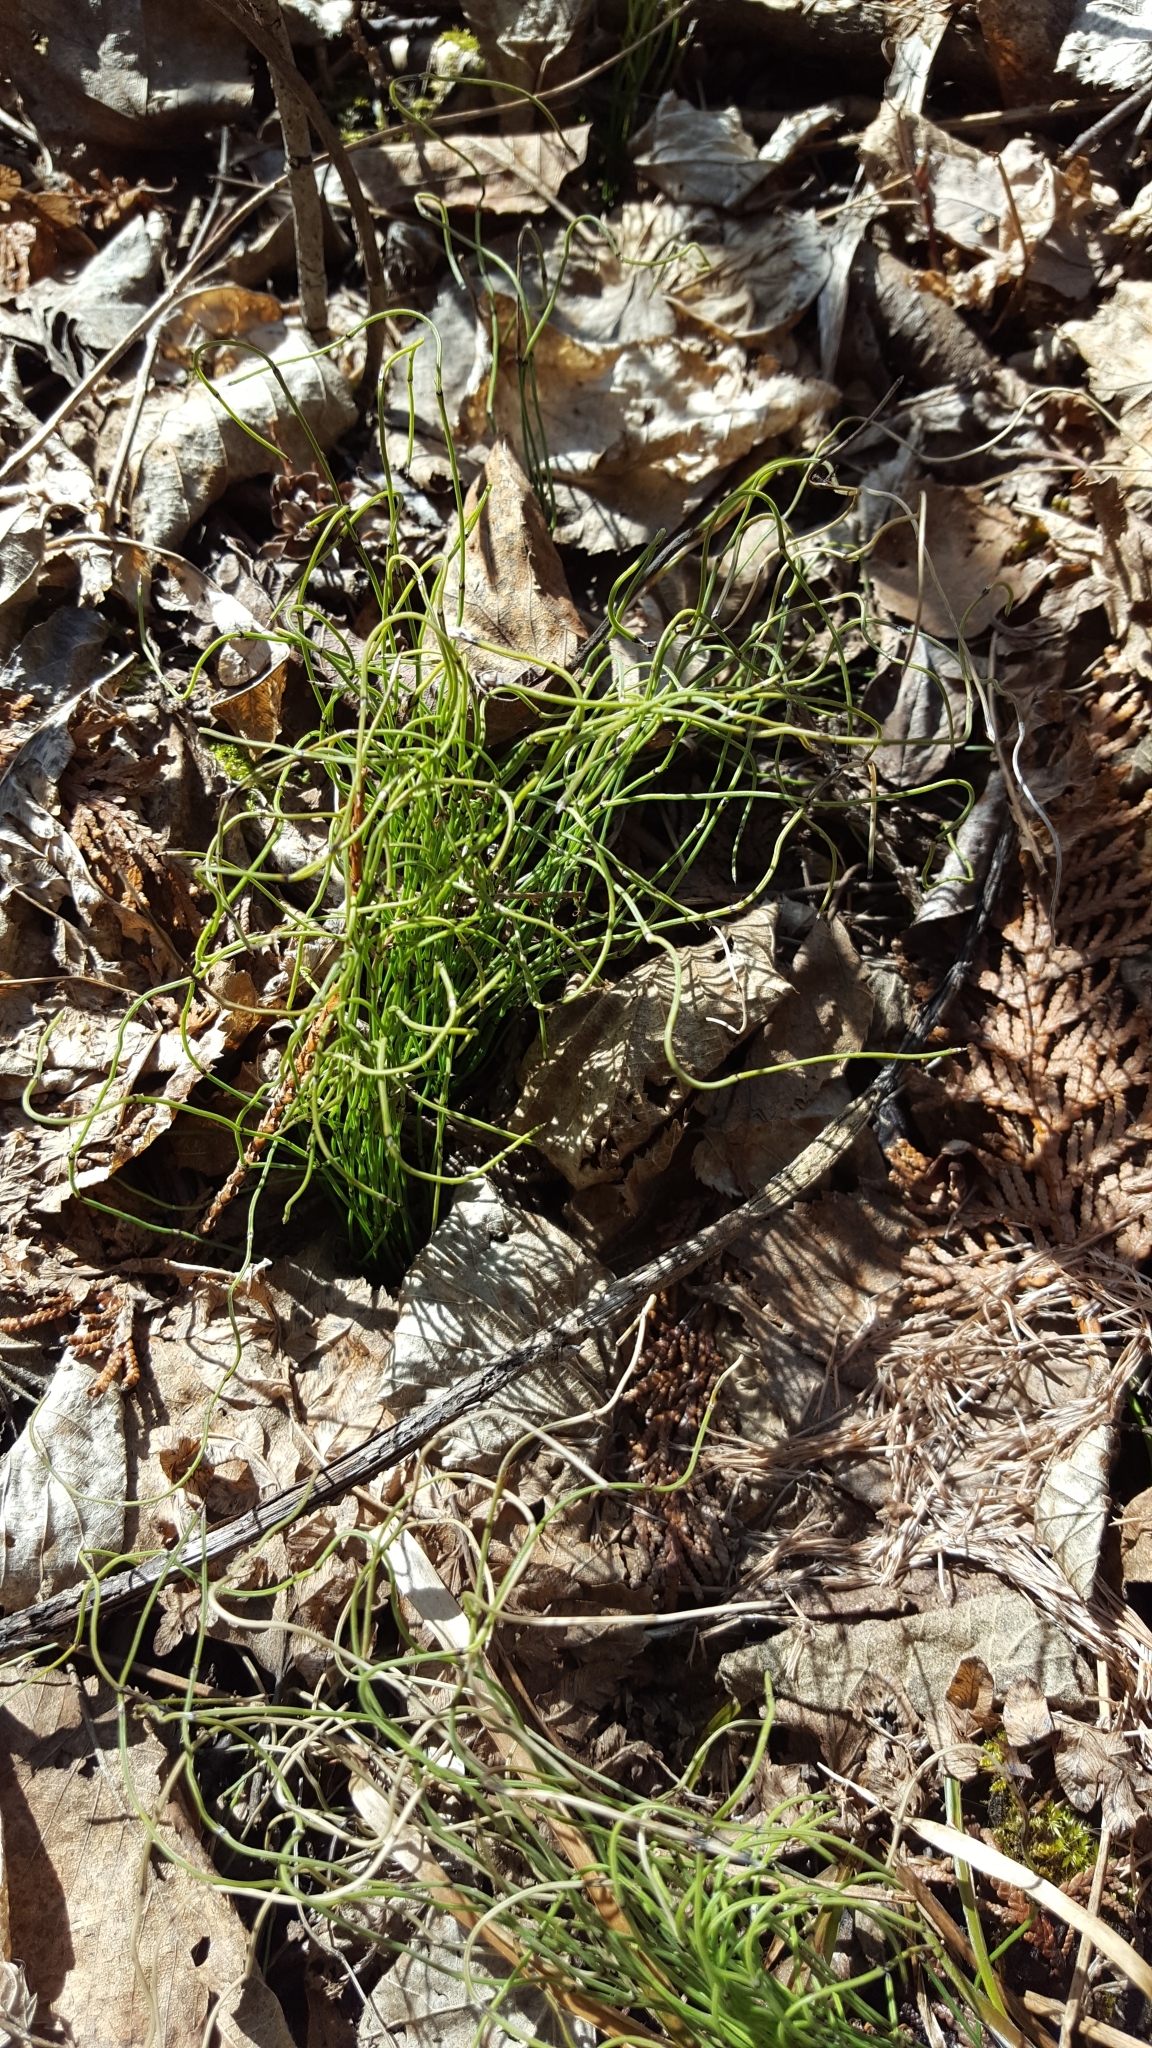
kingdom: Plantae
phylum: Tracheophyta
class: Polypodiopsida
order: Equisetales
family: Equisetaceae
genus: Equisetum
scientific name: Equisetum scirpoides
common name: Delicate horsetail
